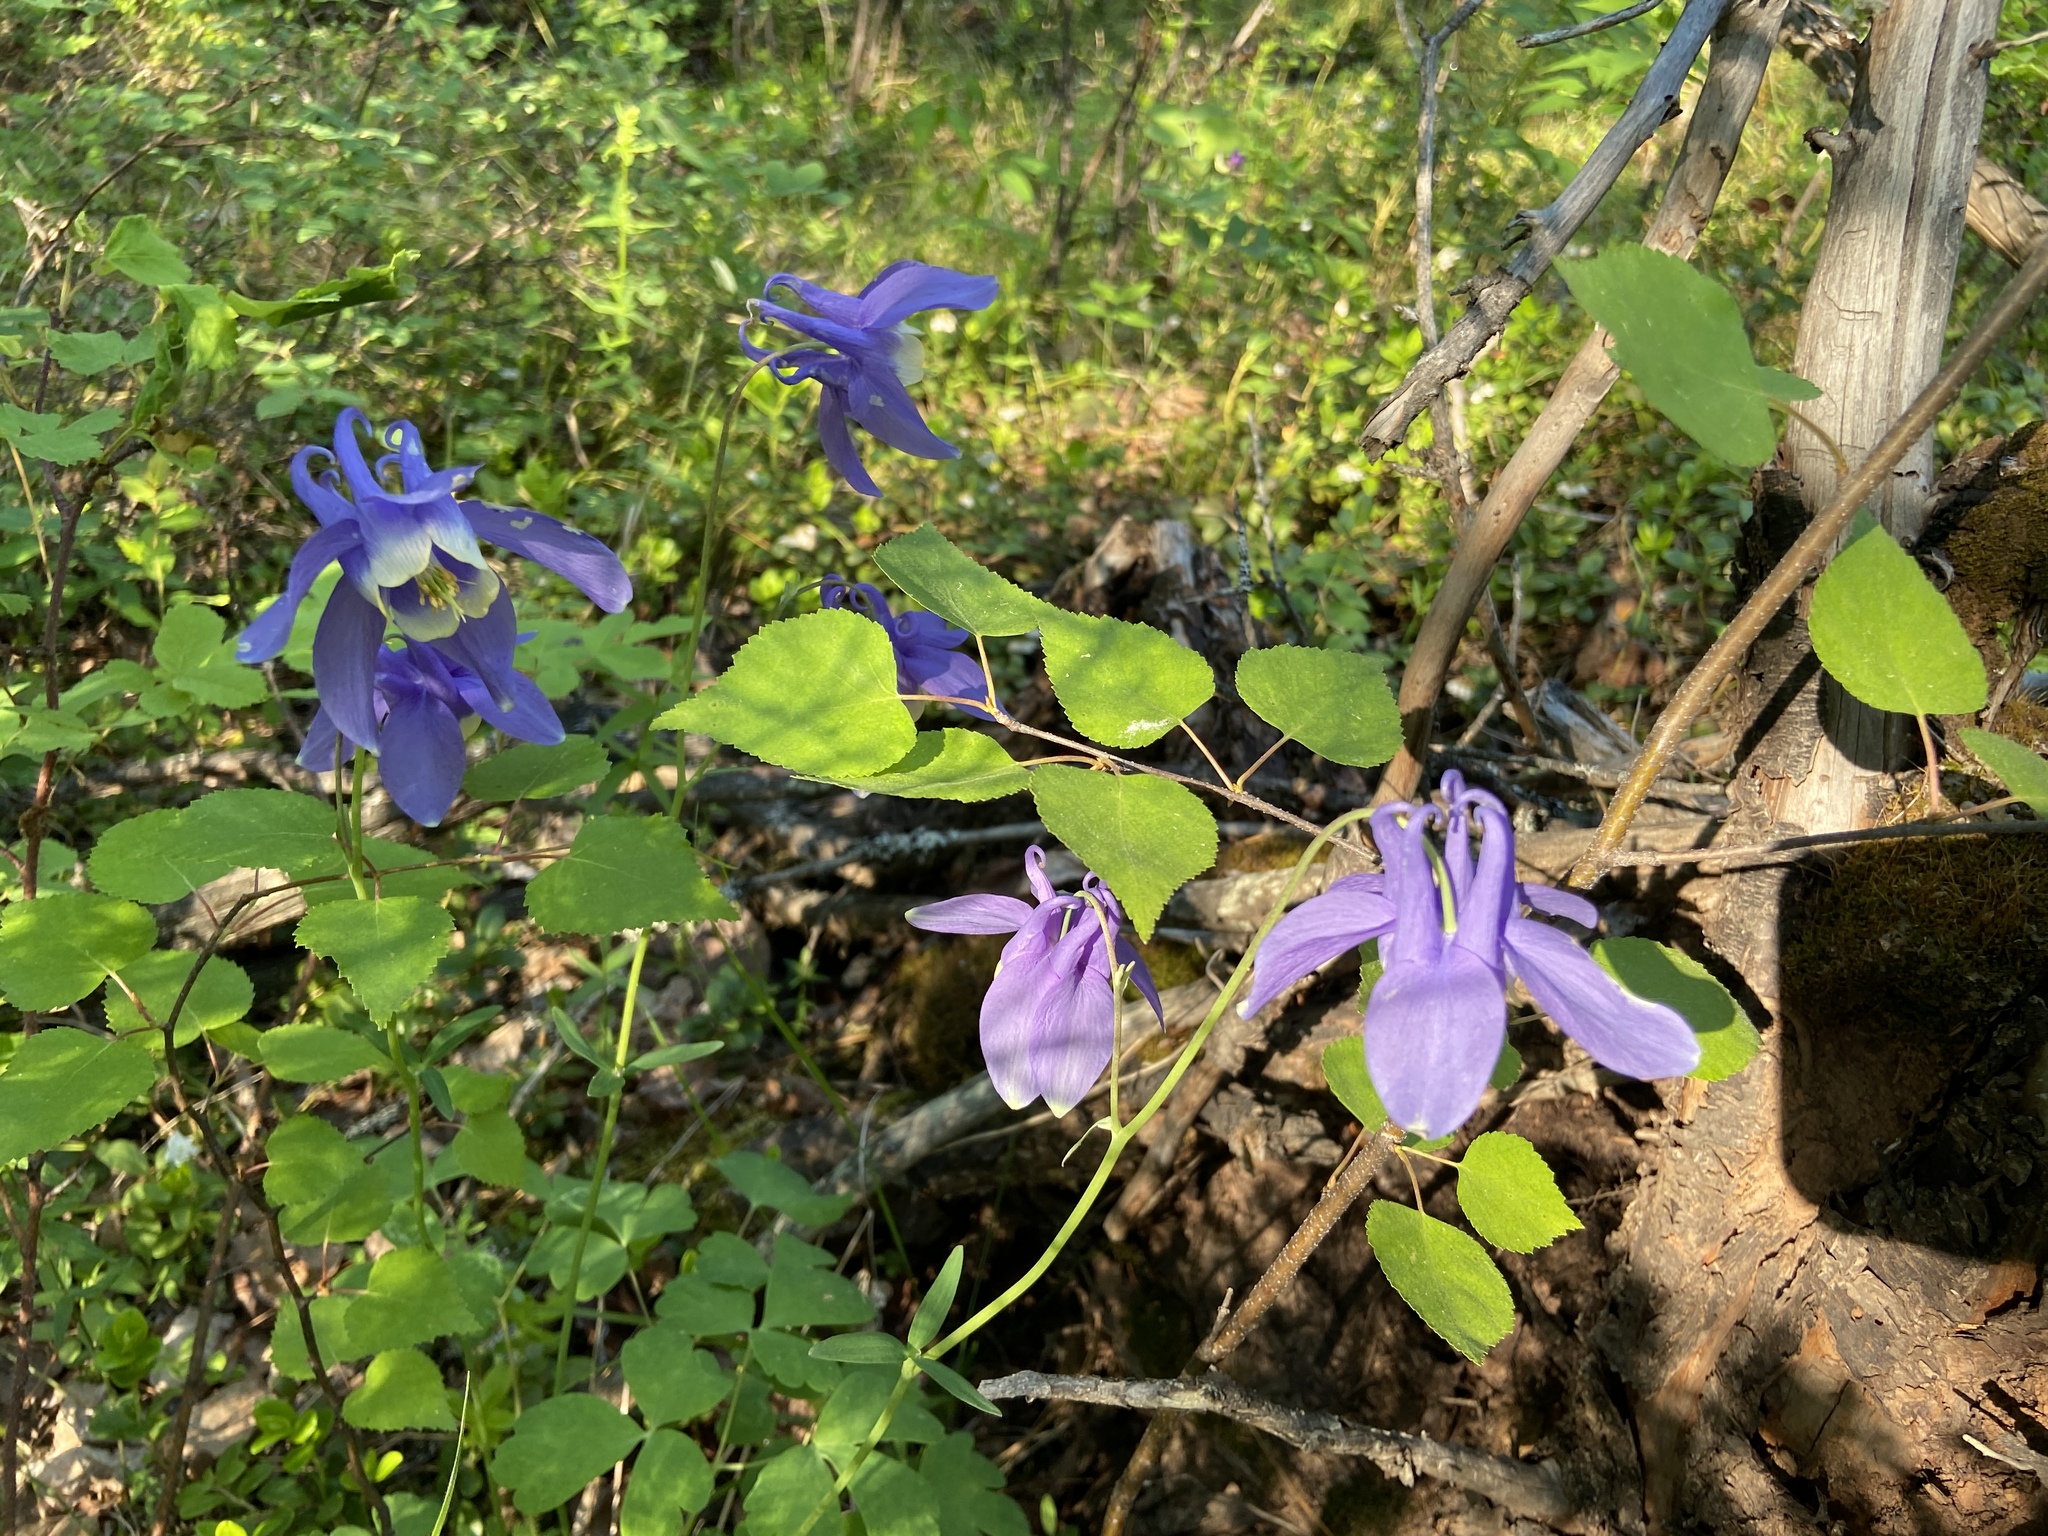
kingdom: Plantae
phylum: Tracheophyta
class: Magnoliopsida
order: Ranunculales
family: Ranunculaceae
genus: Aquilegia
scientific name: Aquilegia sibirica
